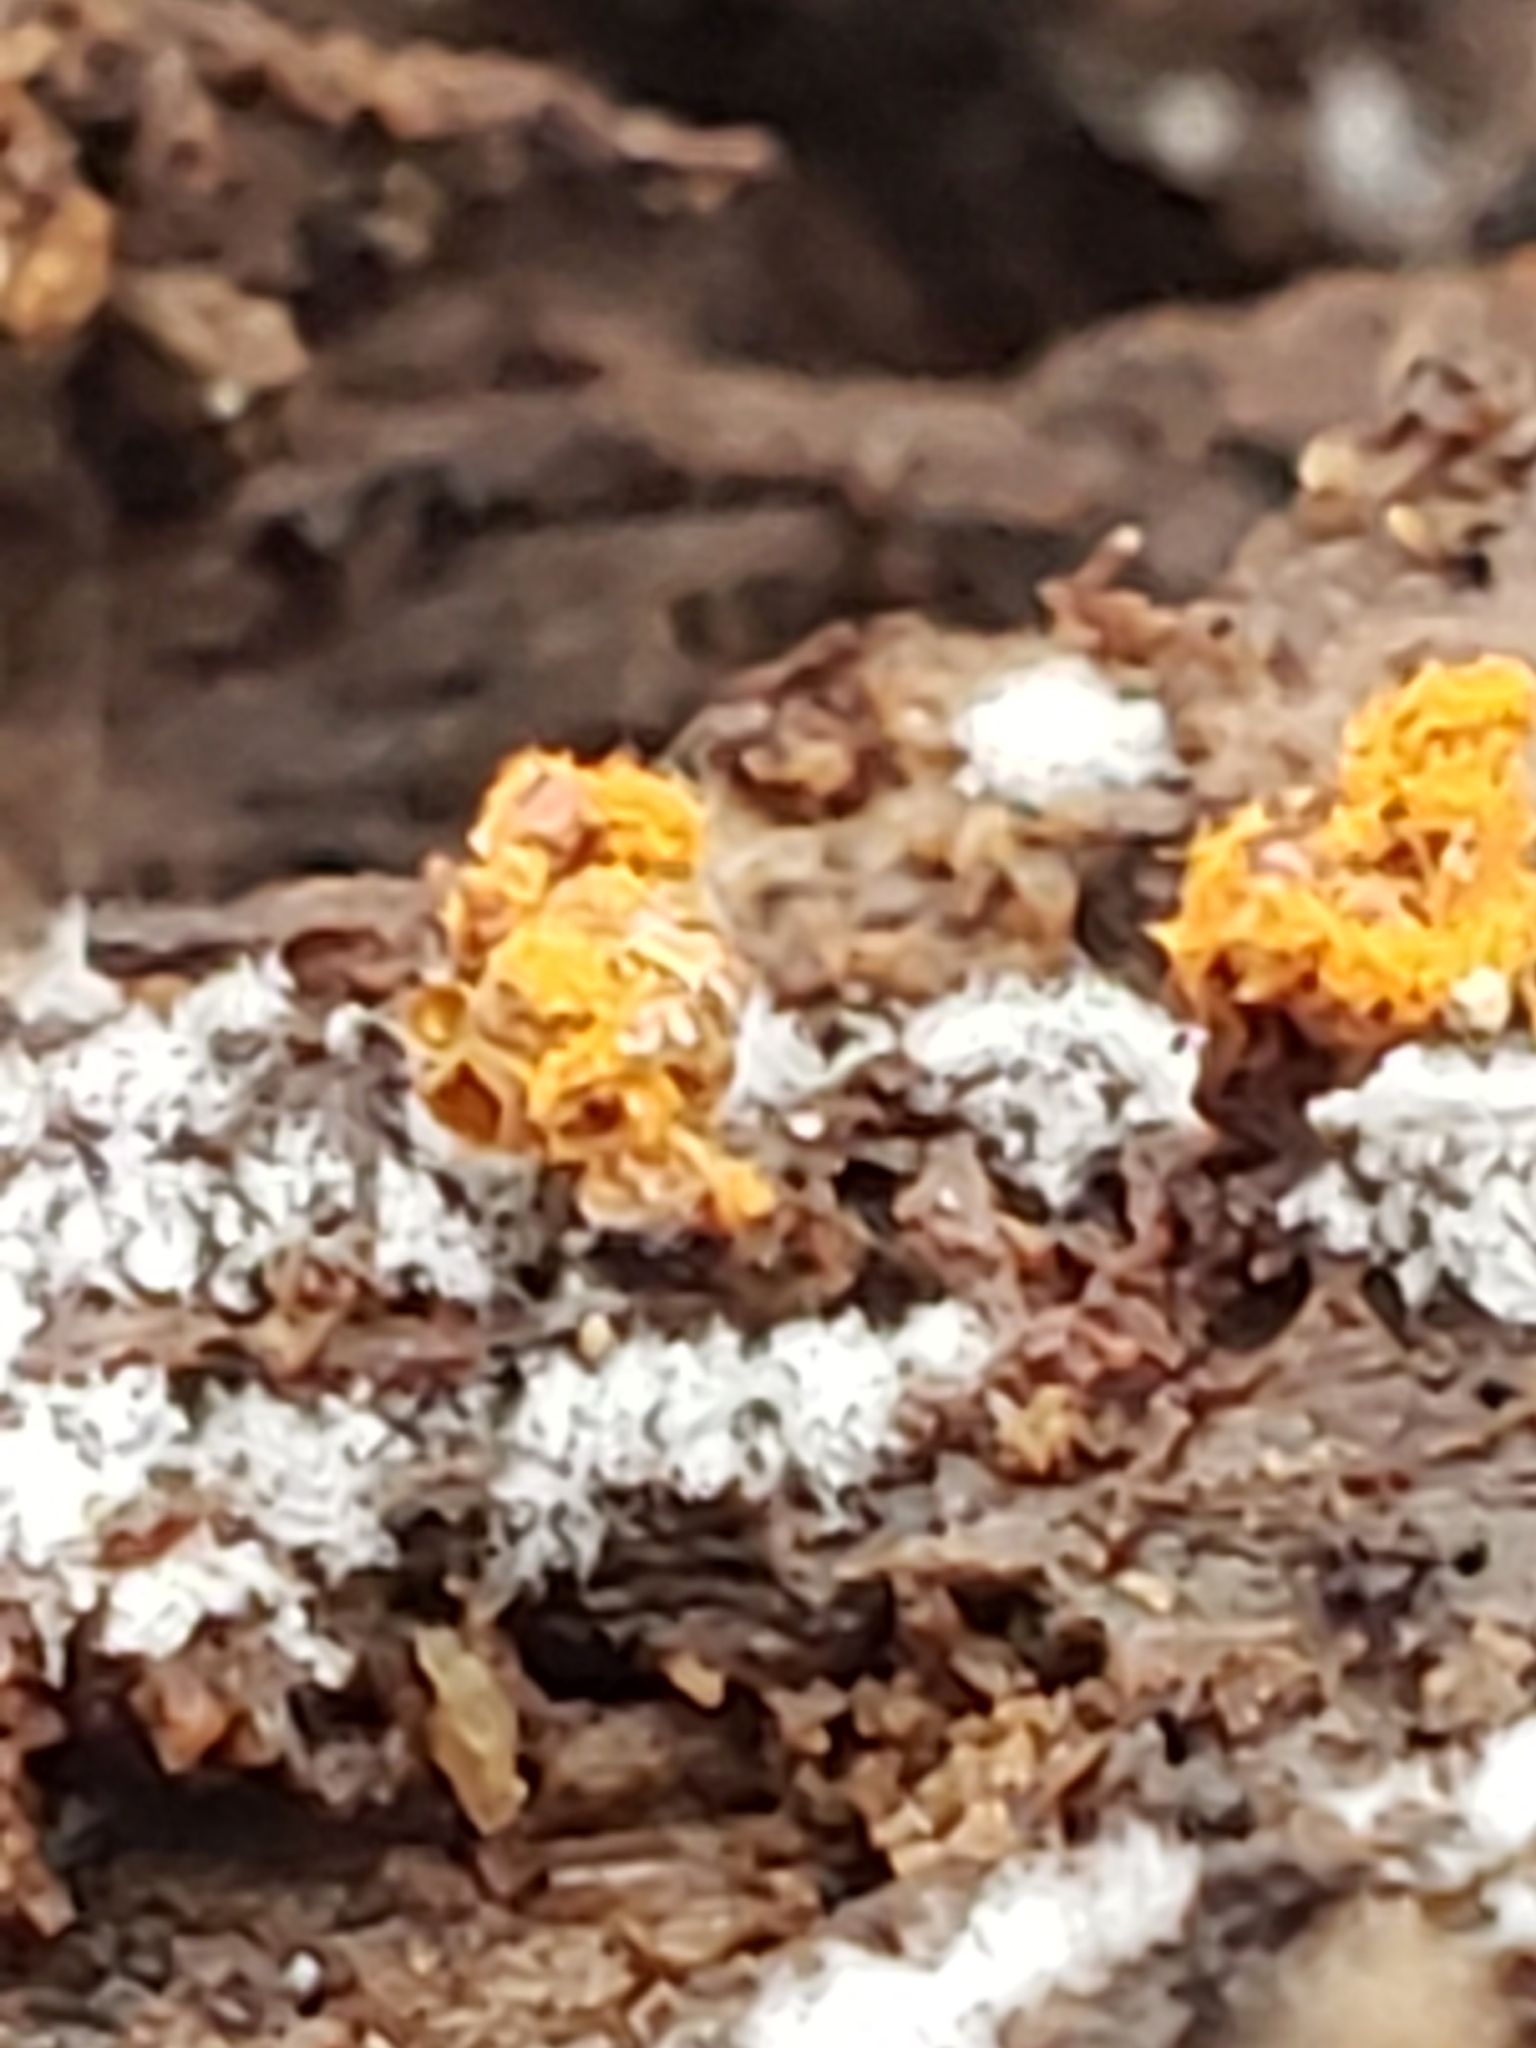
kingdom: Protozoa
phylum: Mycetozoa
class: Myxomycetes
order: Trichiales
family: Trichiaceae
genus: Metatrichia
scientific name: Metatrichia vesparia
